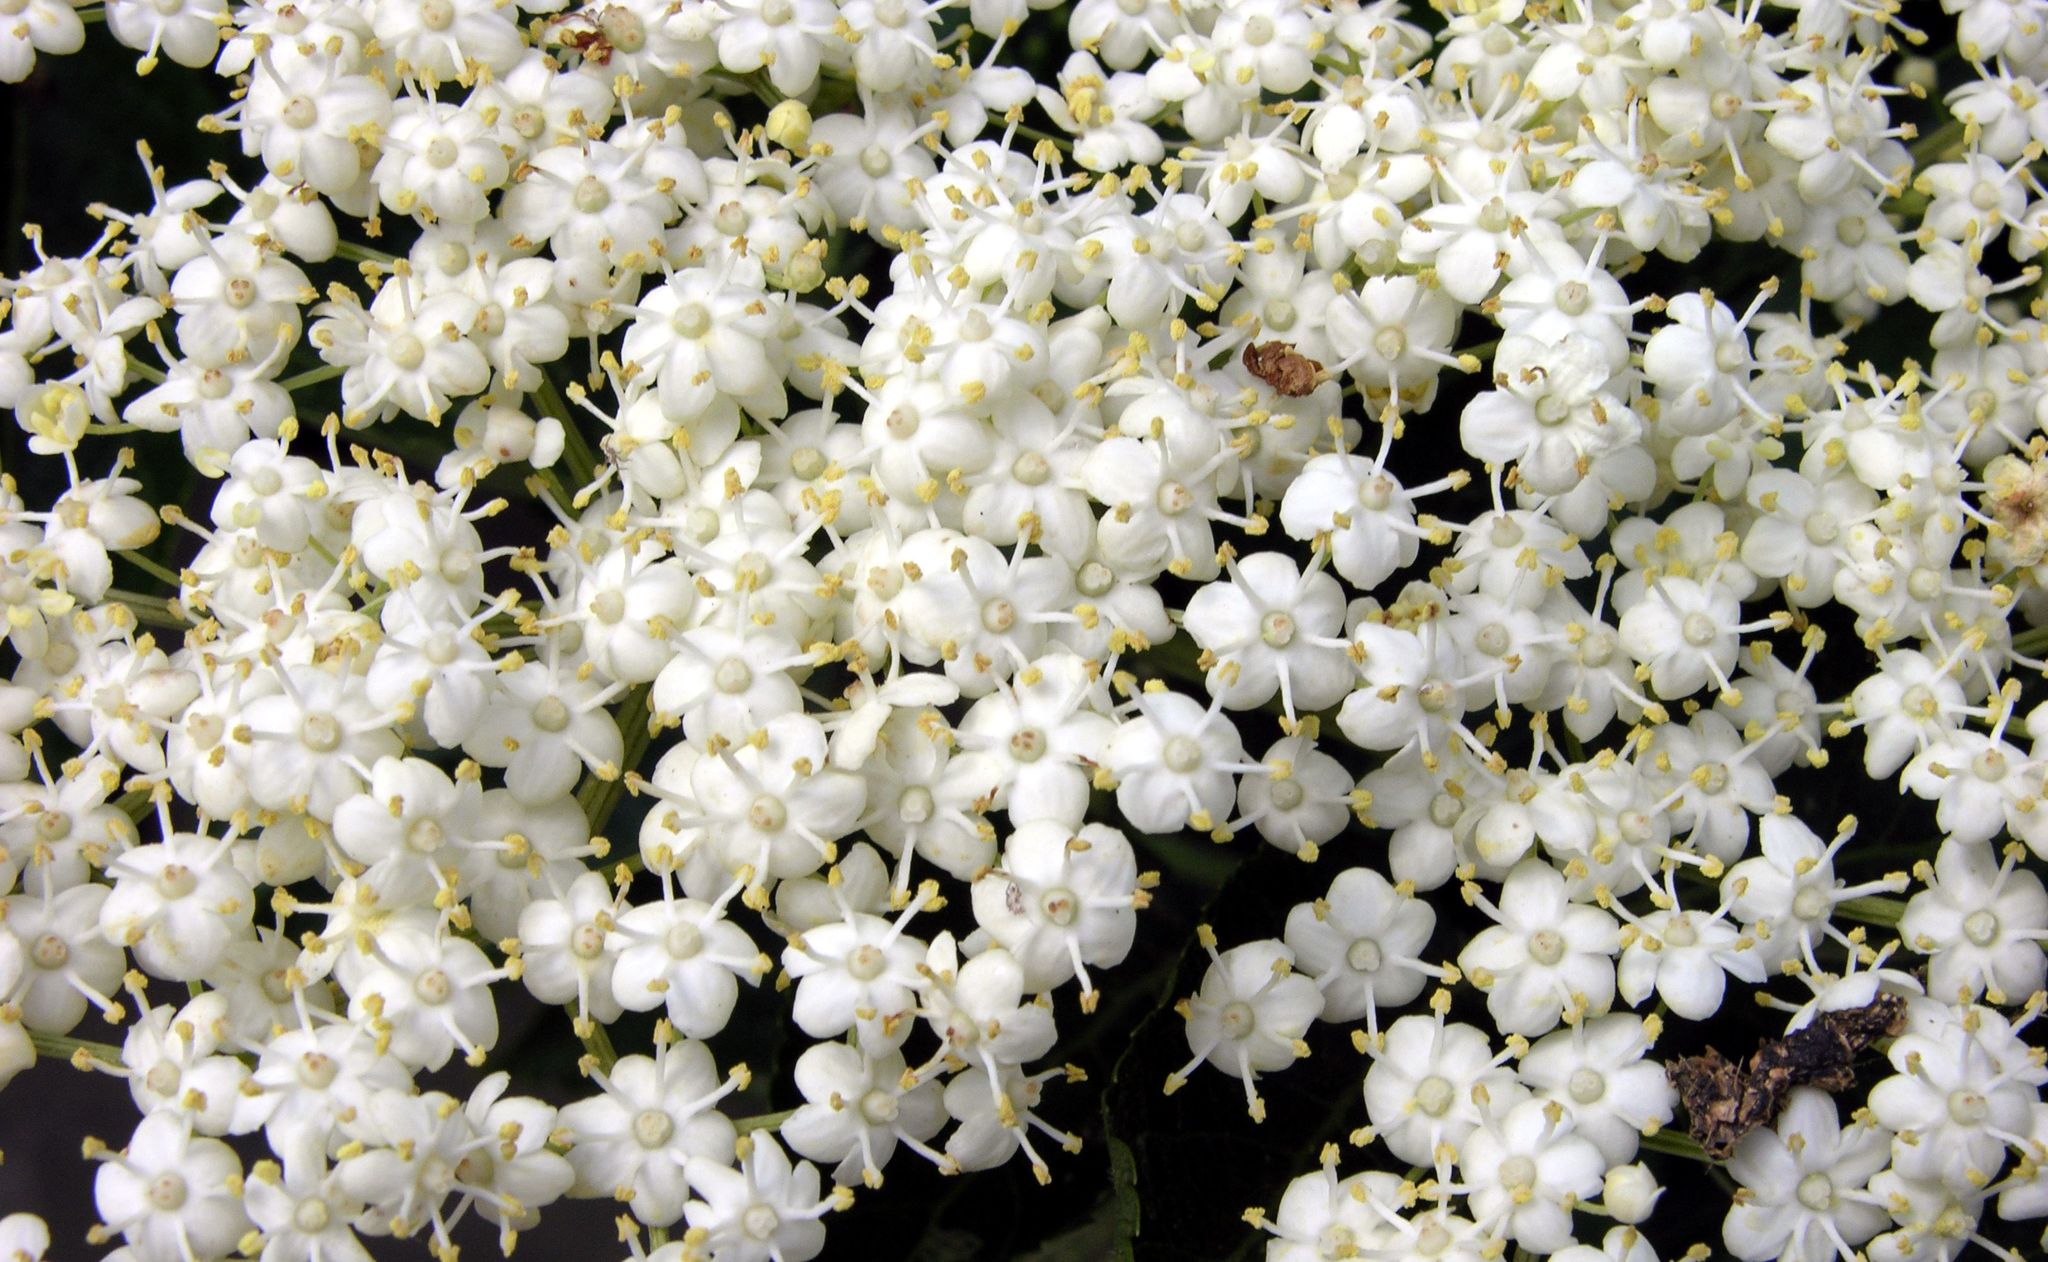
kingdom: Plantae
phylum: Tracheophyta
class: Magnoliopsida
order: Dipsacales
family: Viburnaceae
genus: Sambucus
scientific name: Sambucus nigra
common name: Elder
